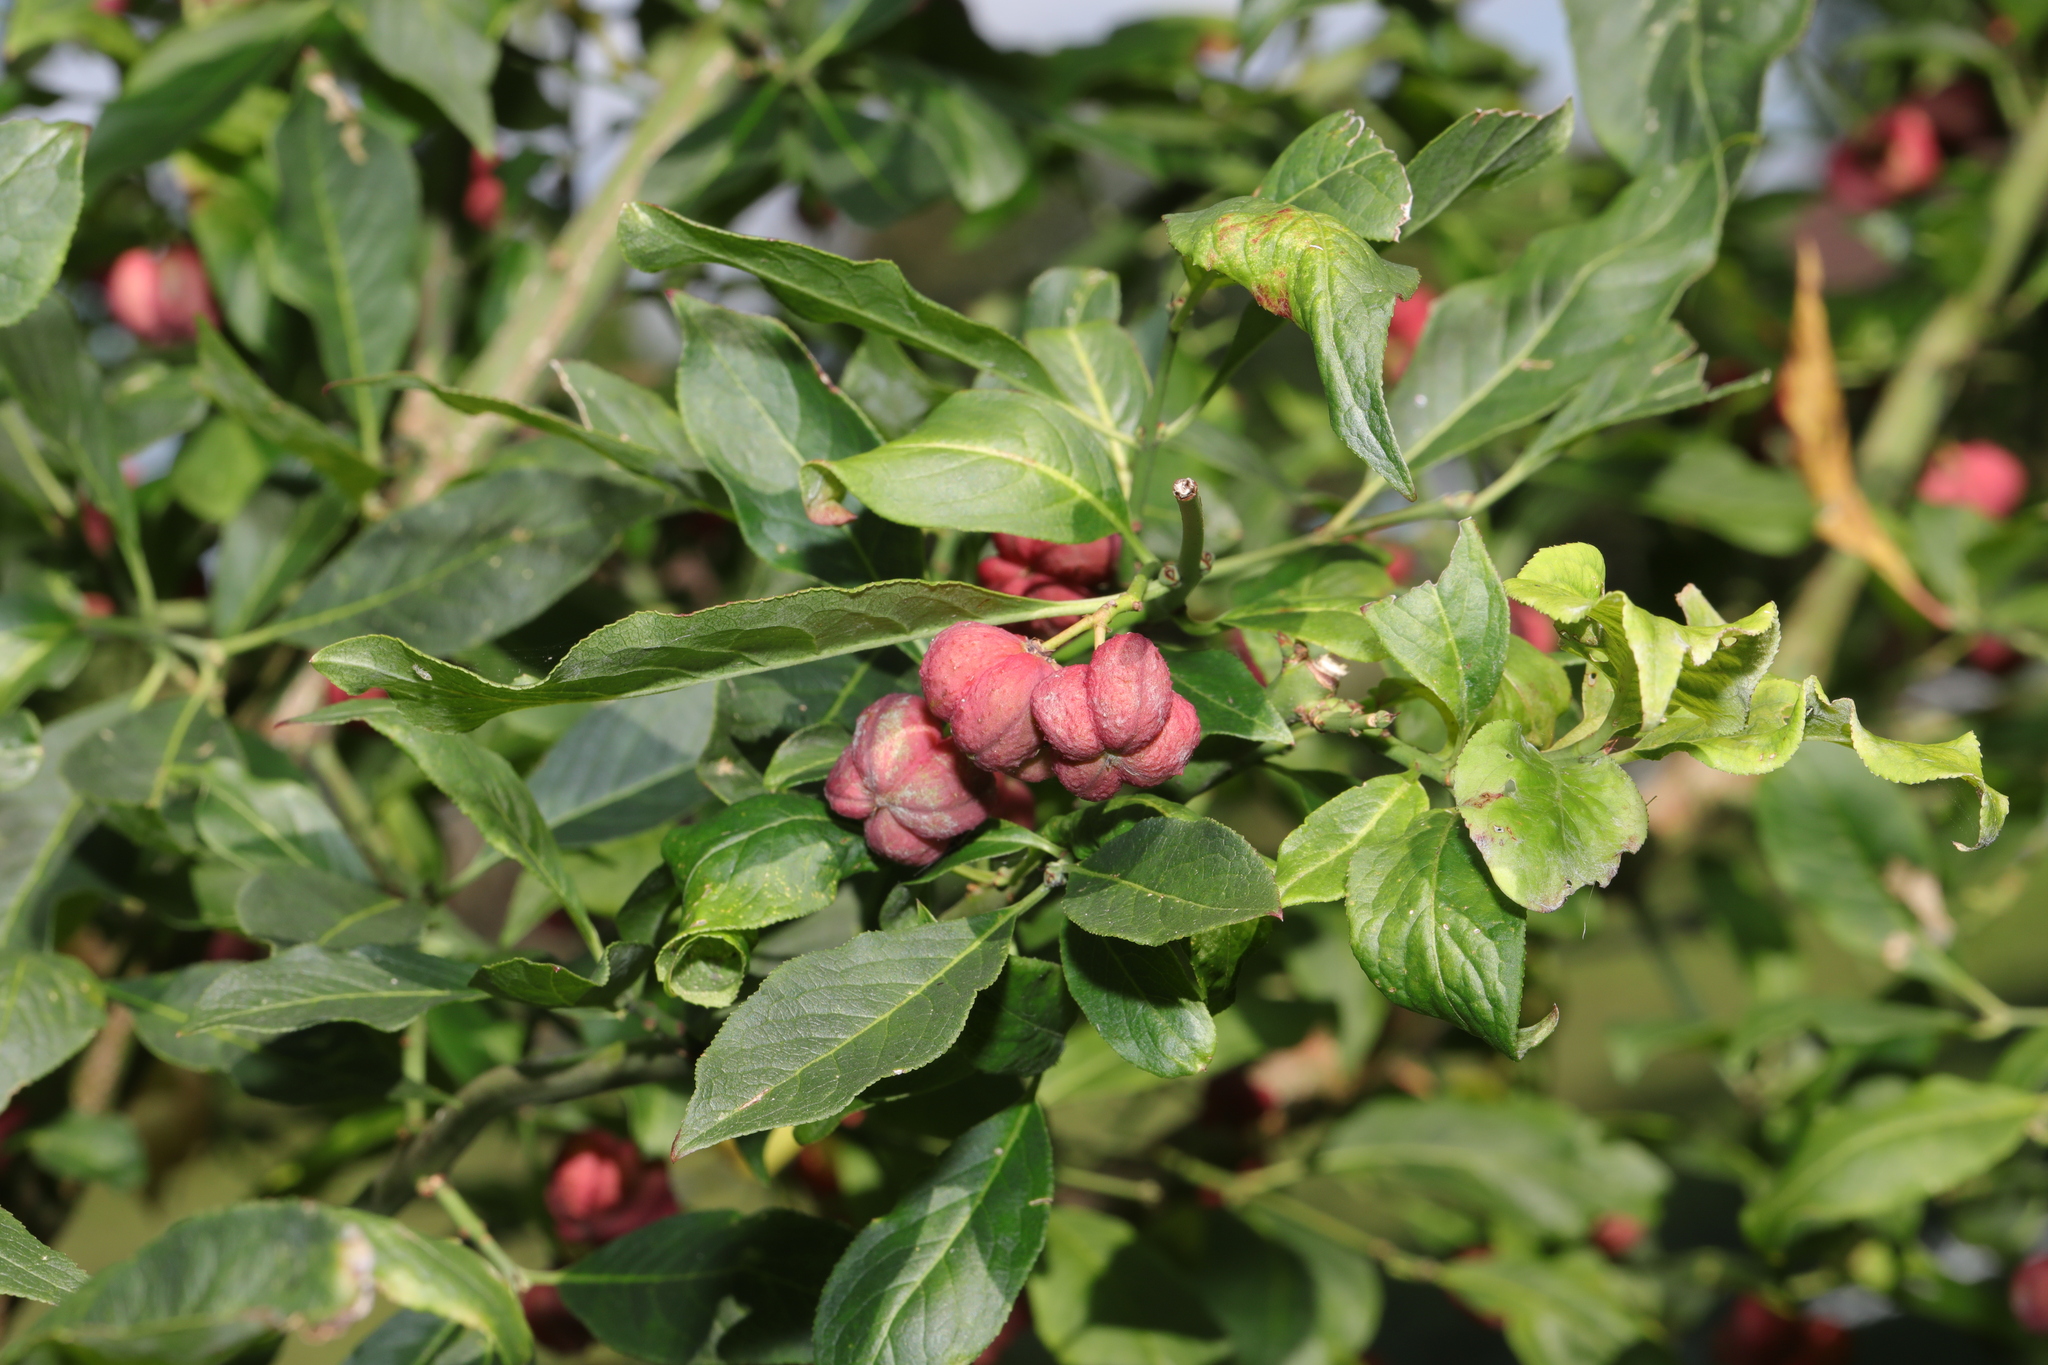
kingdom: Plantae
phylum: Tracheophyta
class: Magnoliopsida
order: Celastrales
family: Celastraceae
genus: Euonymus
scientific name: Euonymus europaeus
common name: Spindle
